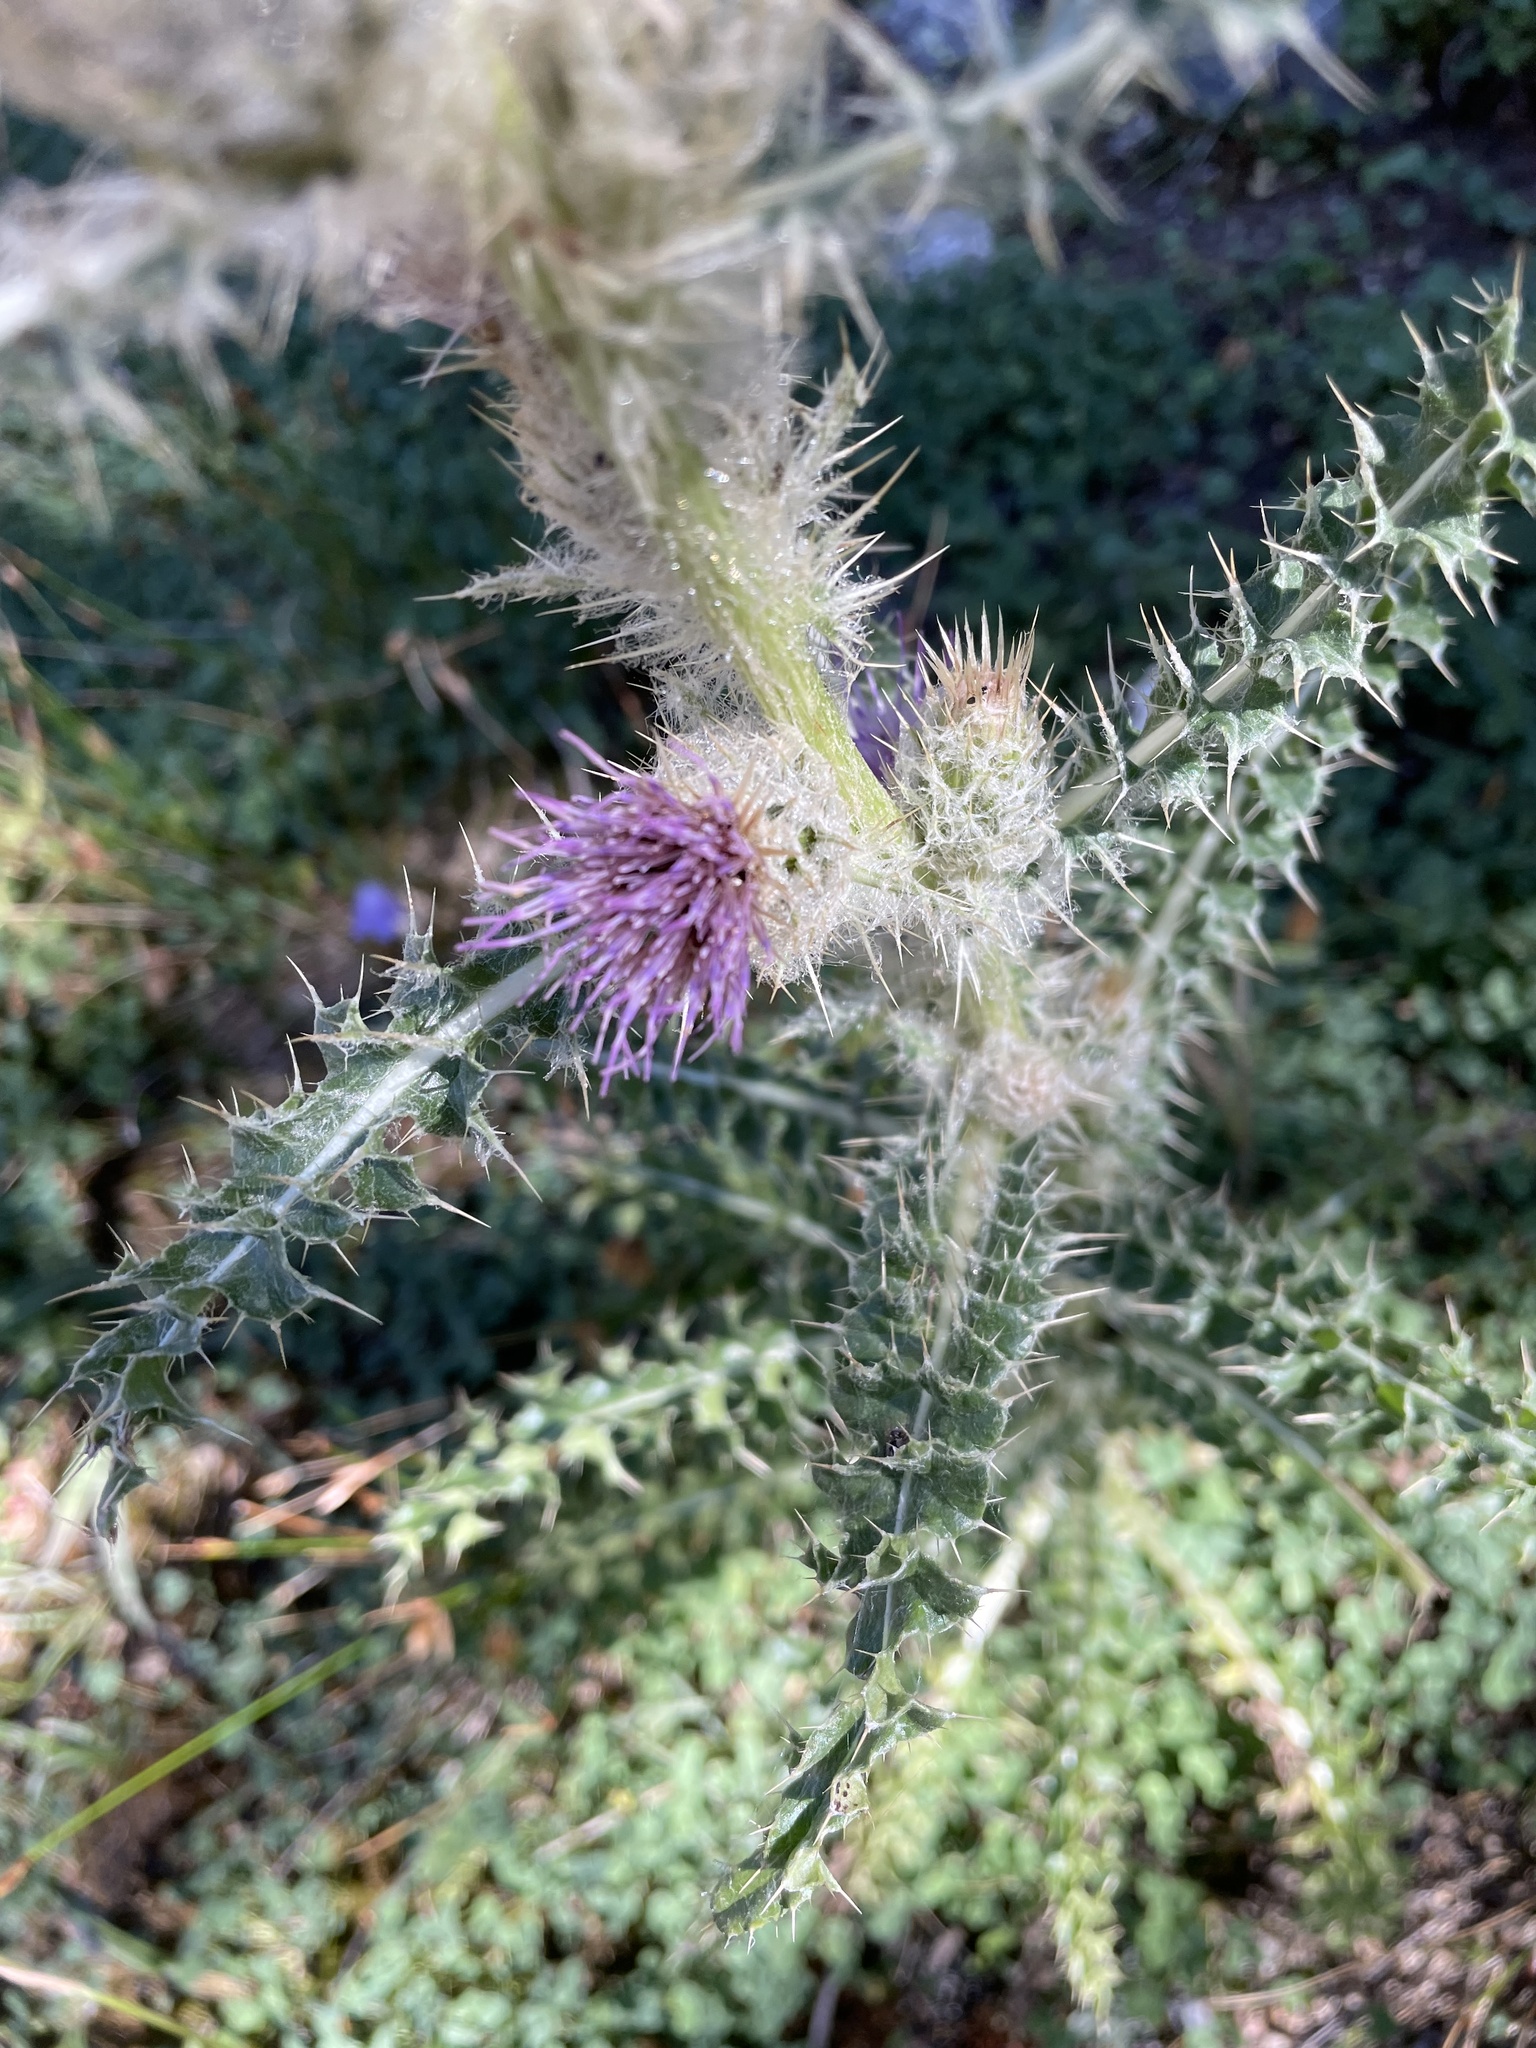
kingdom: Plantae
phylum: Tracheophyta
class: Magnoliopsida
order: Asterales
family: Asteraceae
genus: Cirsium
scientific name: Cirsium eatonii
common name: Eaton's thistle
